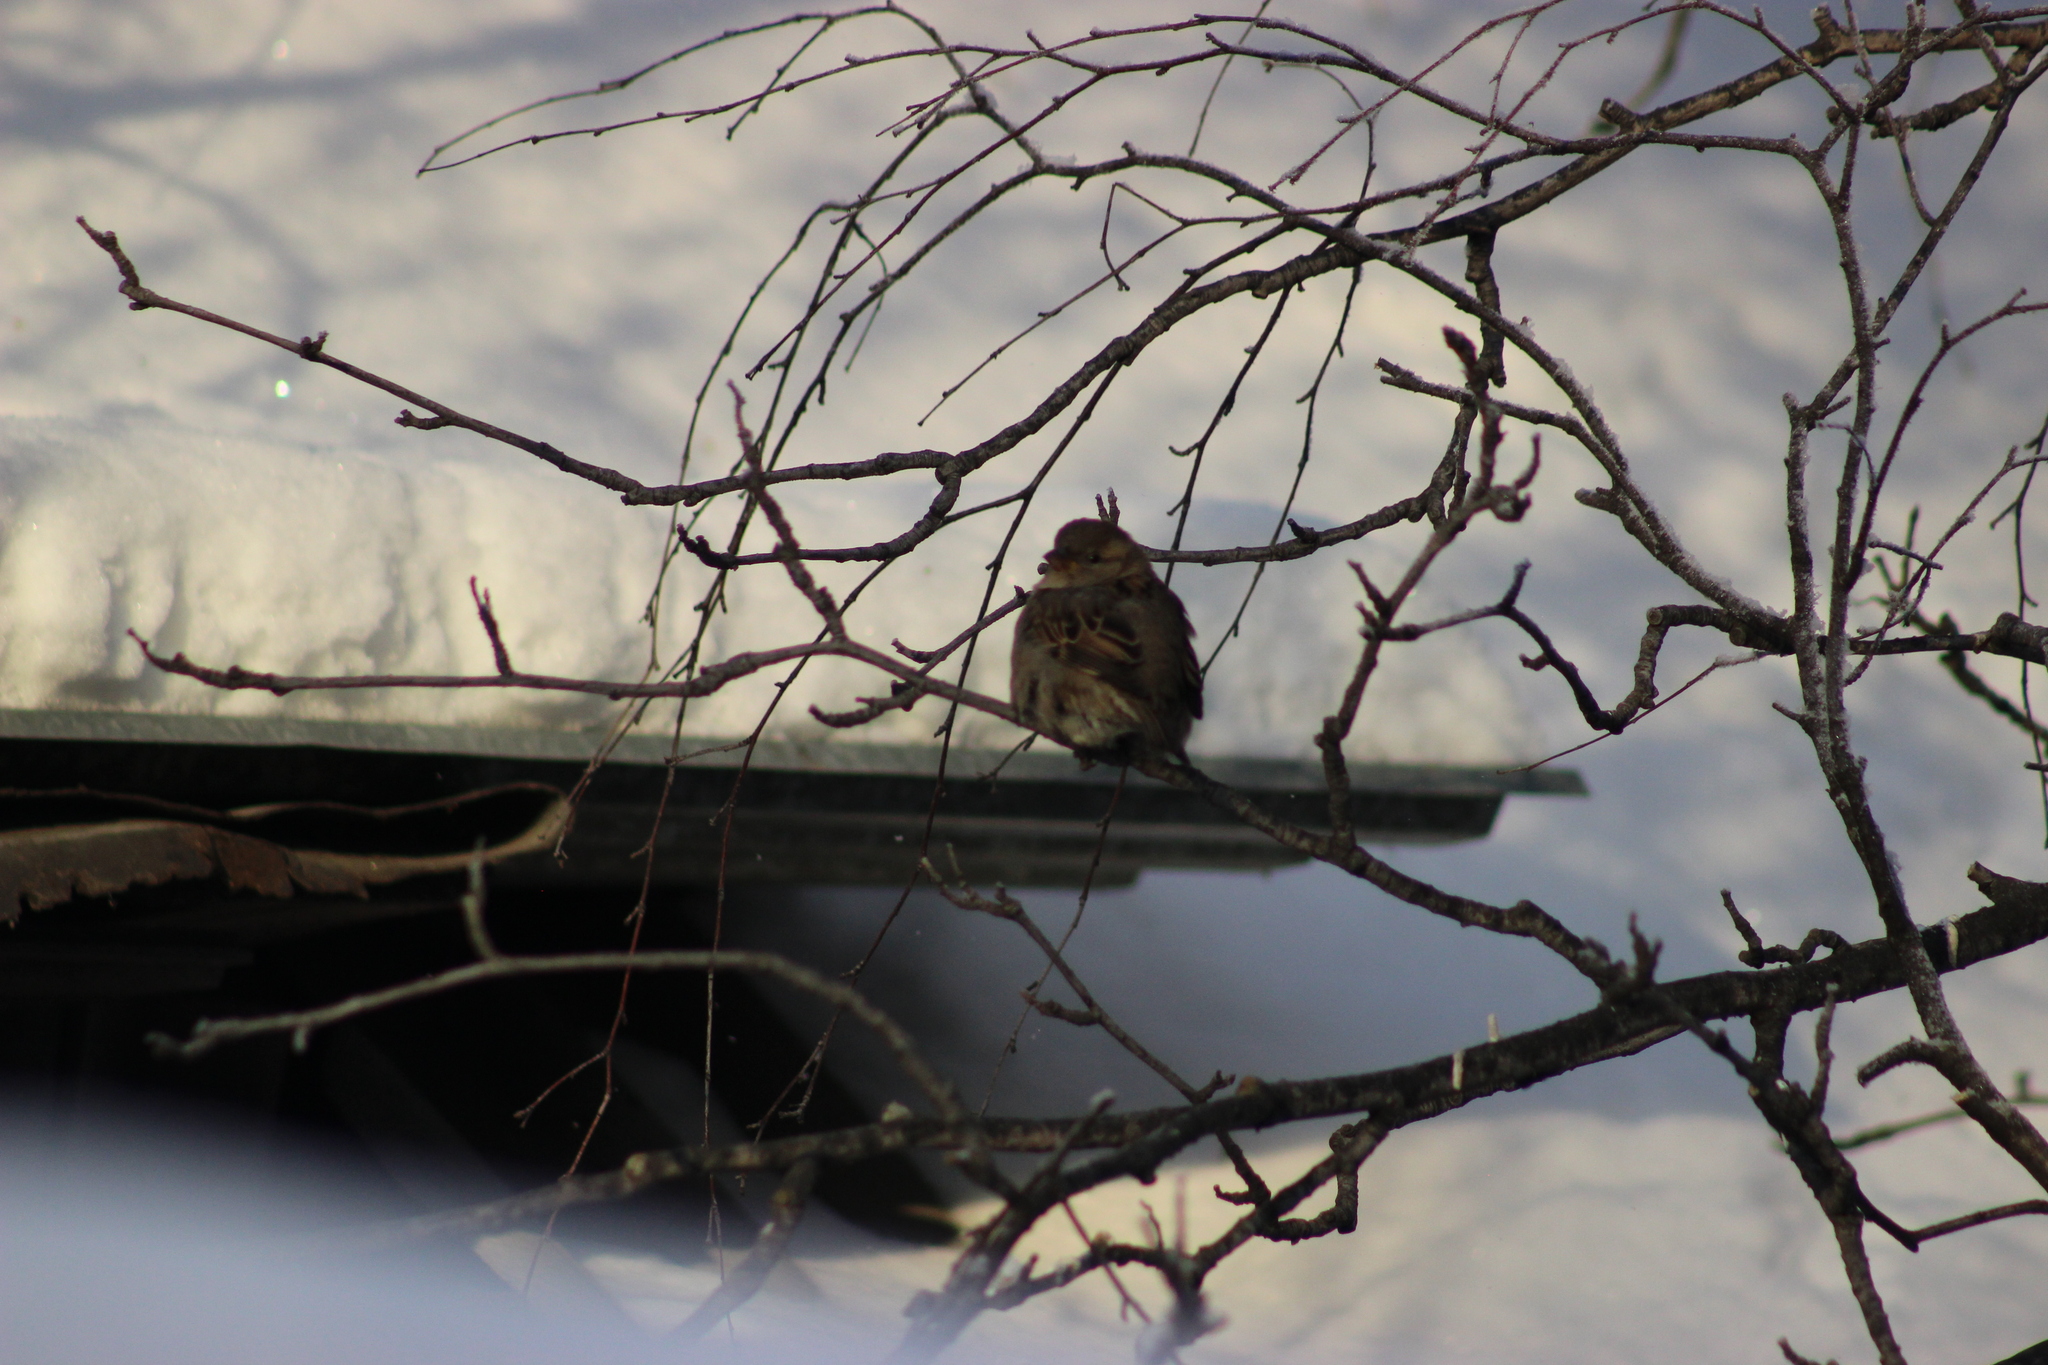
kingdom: Animalia
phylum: Chordata
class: Aves
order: Passeriformes
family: Passeridae
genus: Passer
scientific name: Passer domesticus
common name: House sparrow
